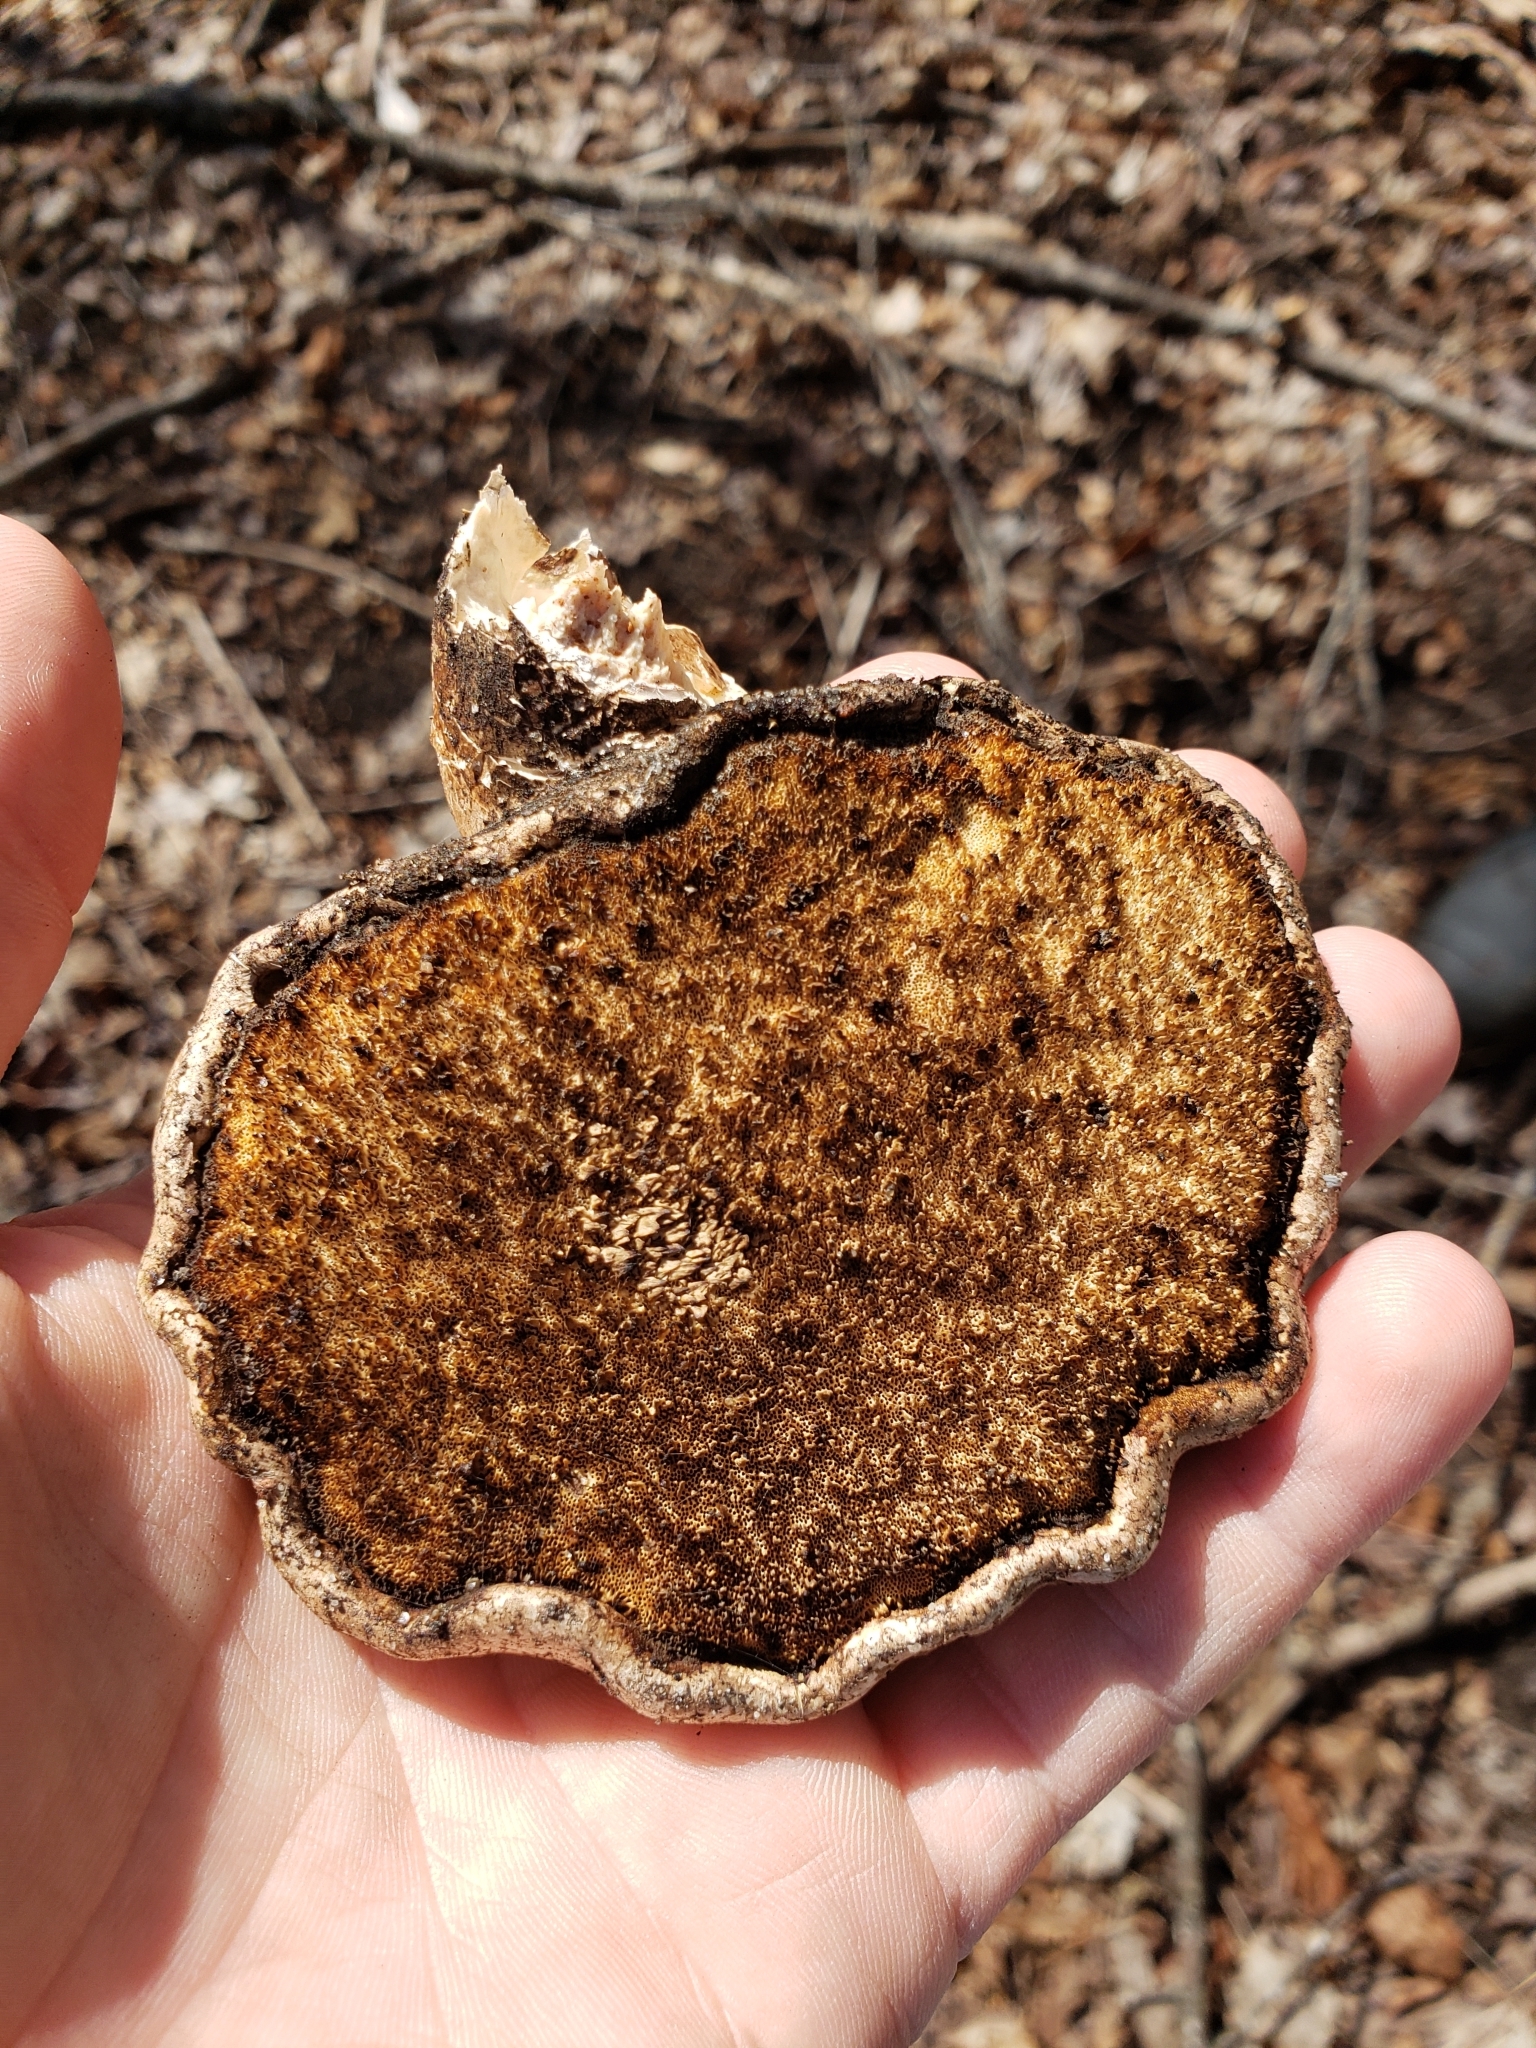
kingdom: Fungi
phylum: Basidiomycota
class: Agaricomycetes
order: Polyporales
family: Fomitopsidaceae
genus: Fomitopsis
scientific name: Fomitopsis betulina
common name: Birch polypore
